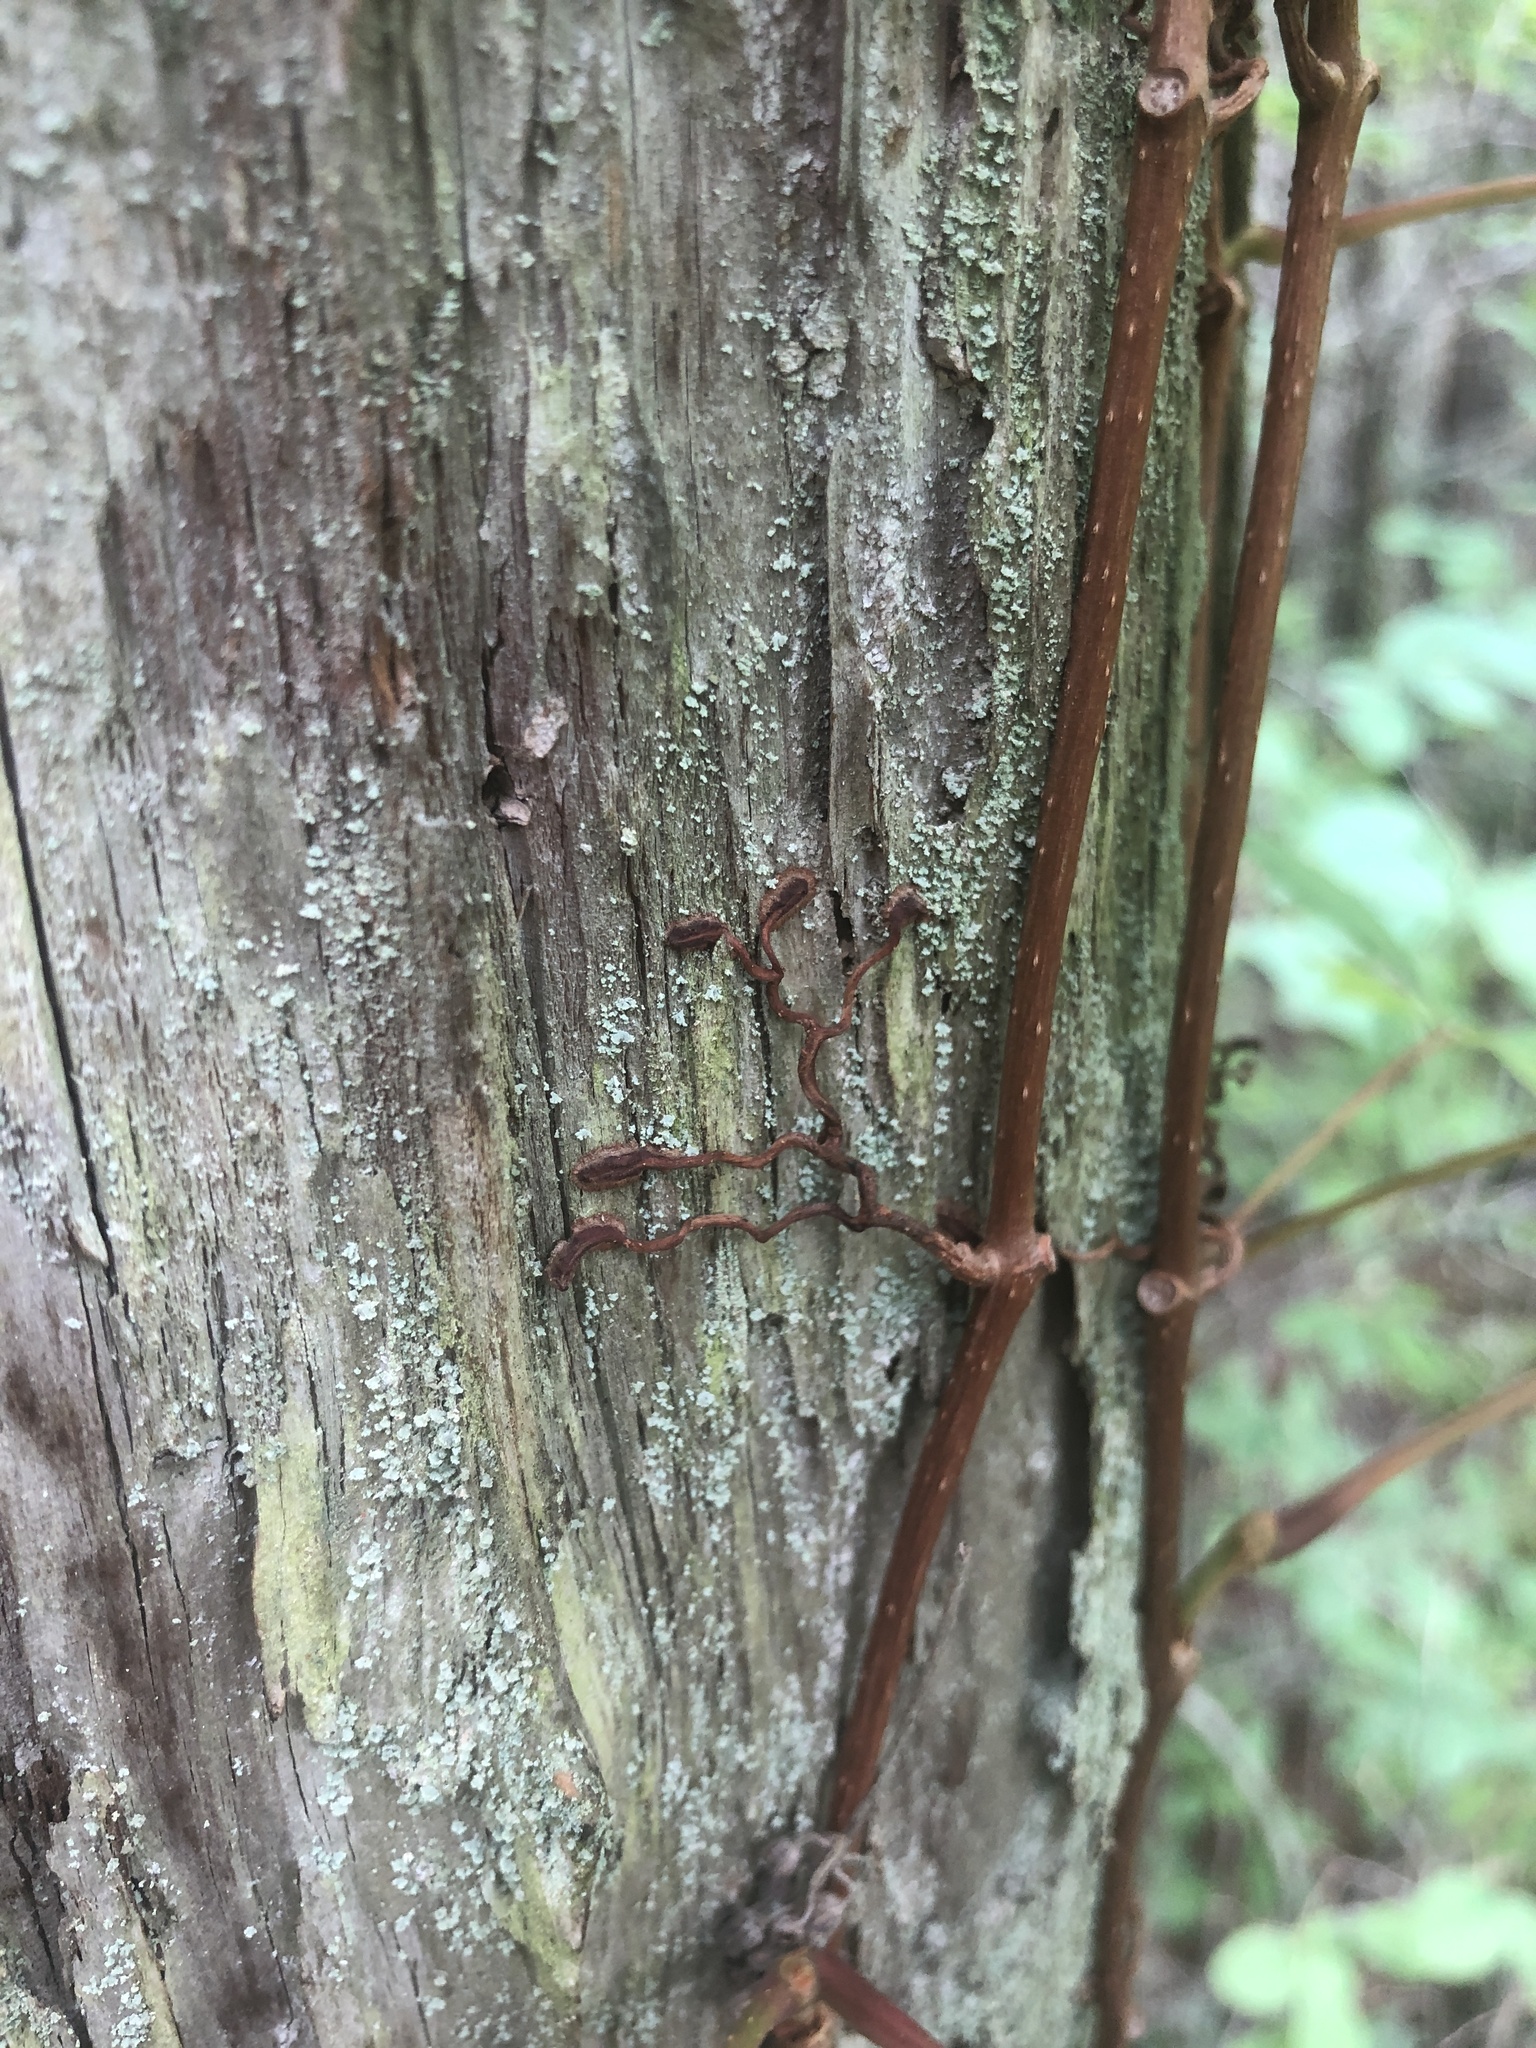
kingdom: Plantae
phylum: Tracheophyta
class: Magnoliopsida
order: Vitales
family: Vitaceae
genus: Parthenocissus
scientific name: Parthenocissus quinquefolia
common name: Virginia-creeper
